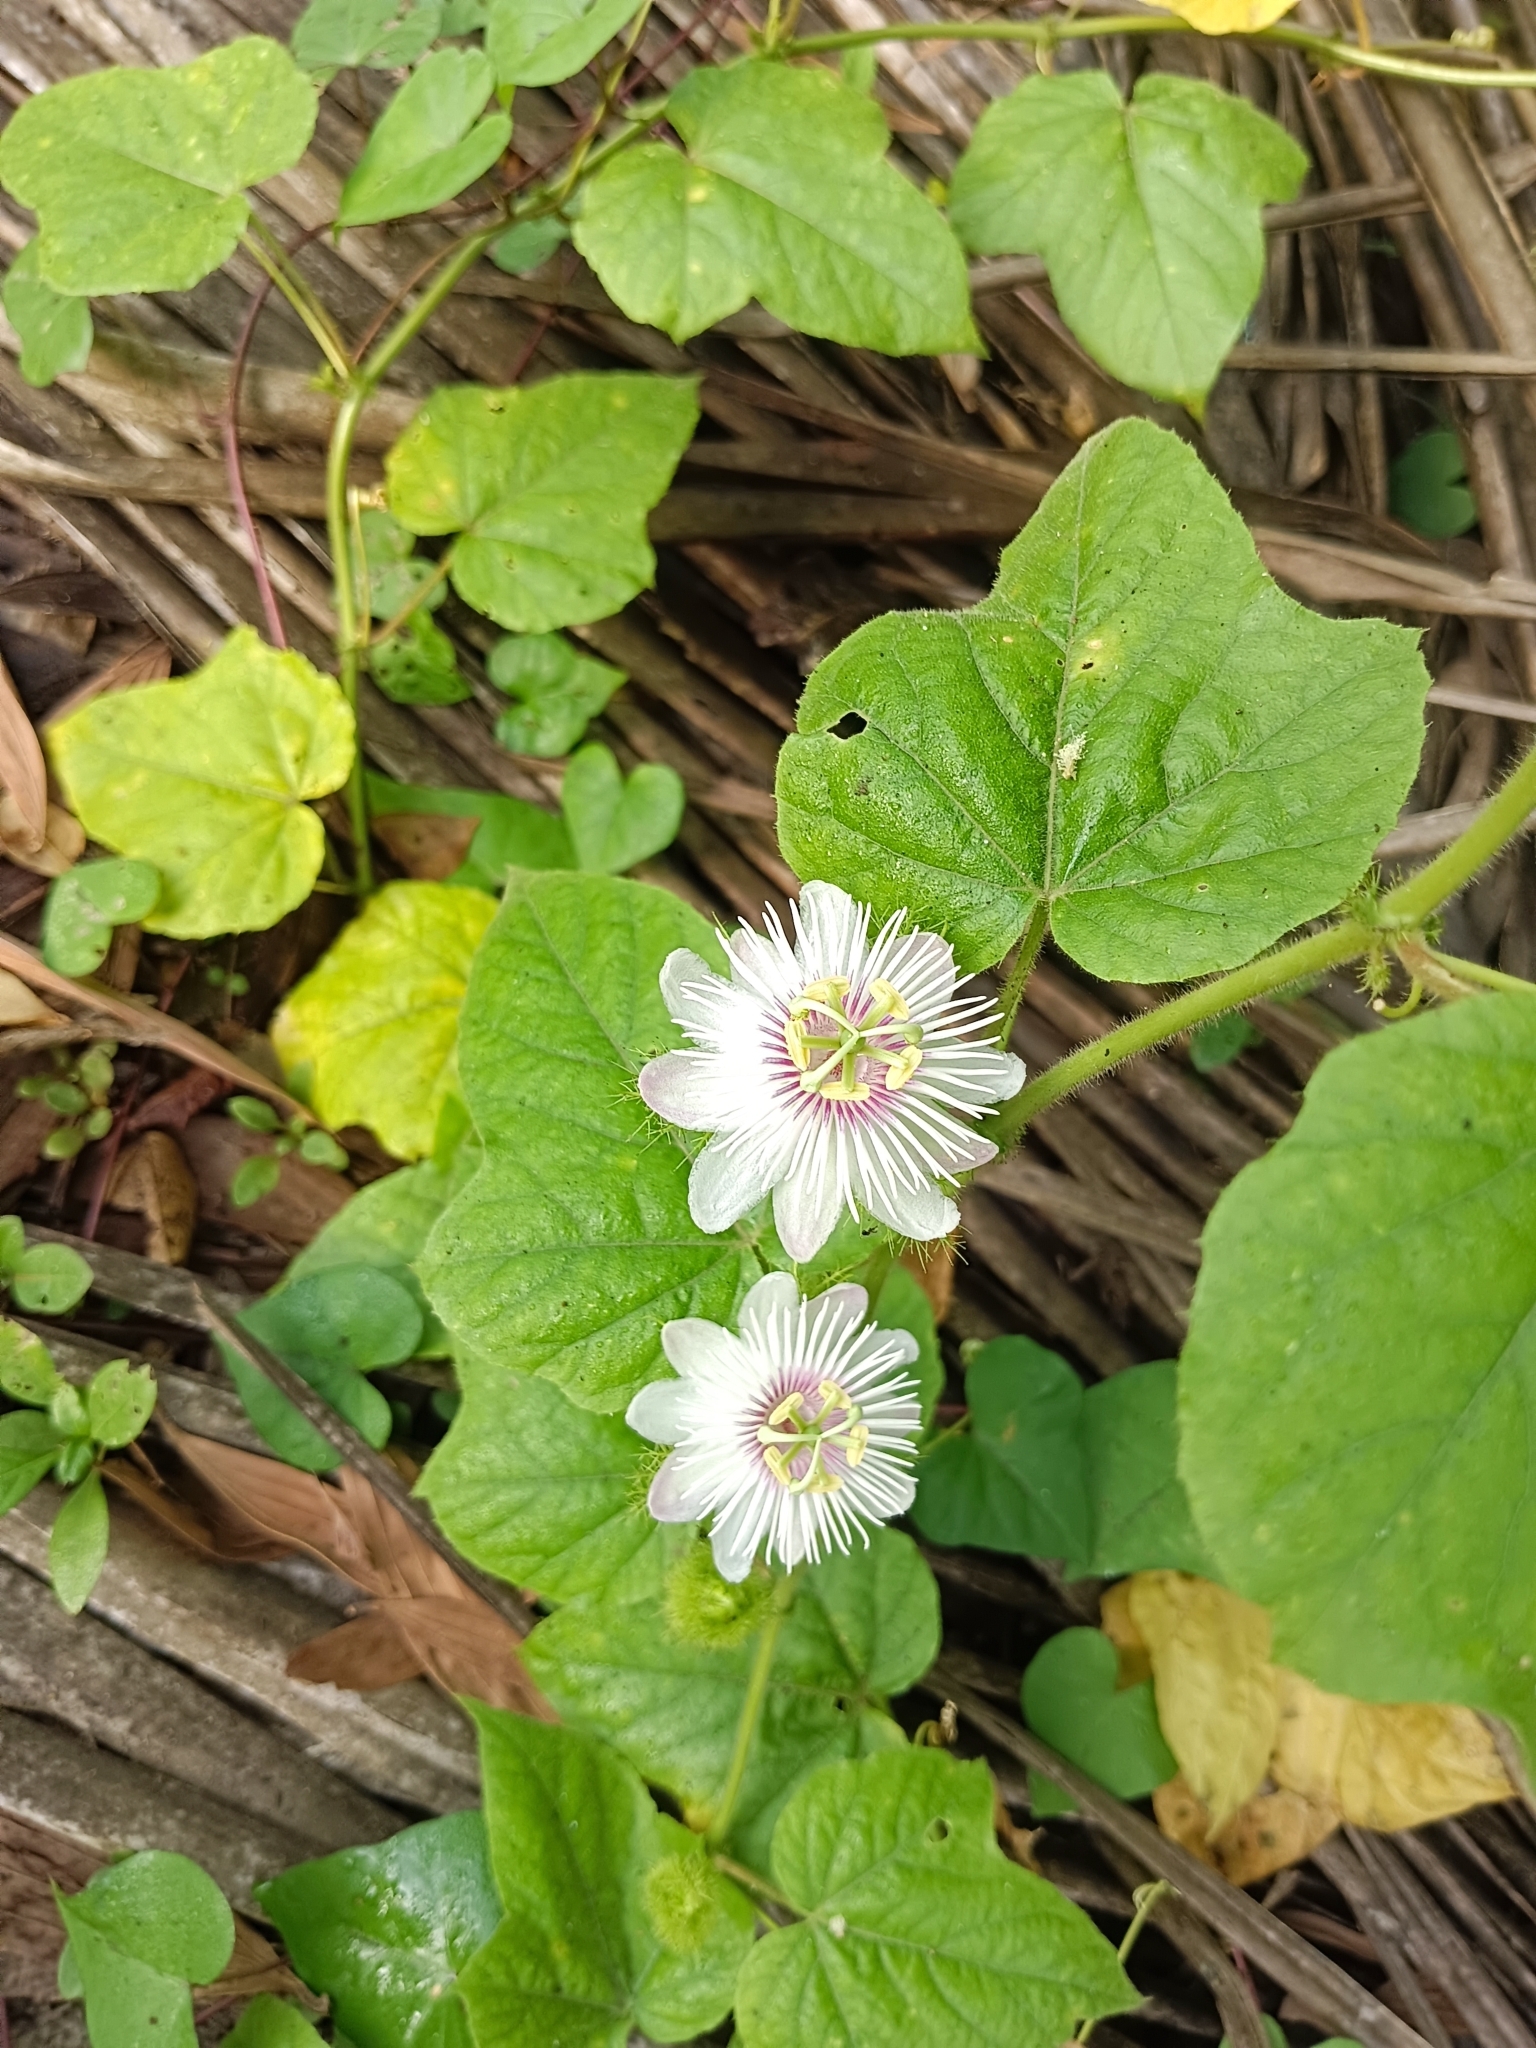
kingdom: Plantae
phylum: Tracheophyta
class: Magnoliopsida
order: Malpighiales
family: Passifloraceae
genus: Passiflora
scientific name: Passiflora vesicaria
